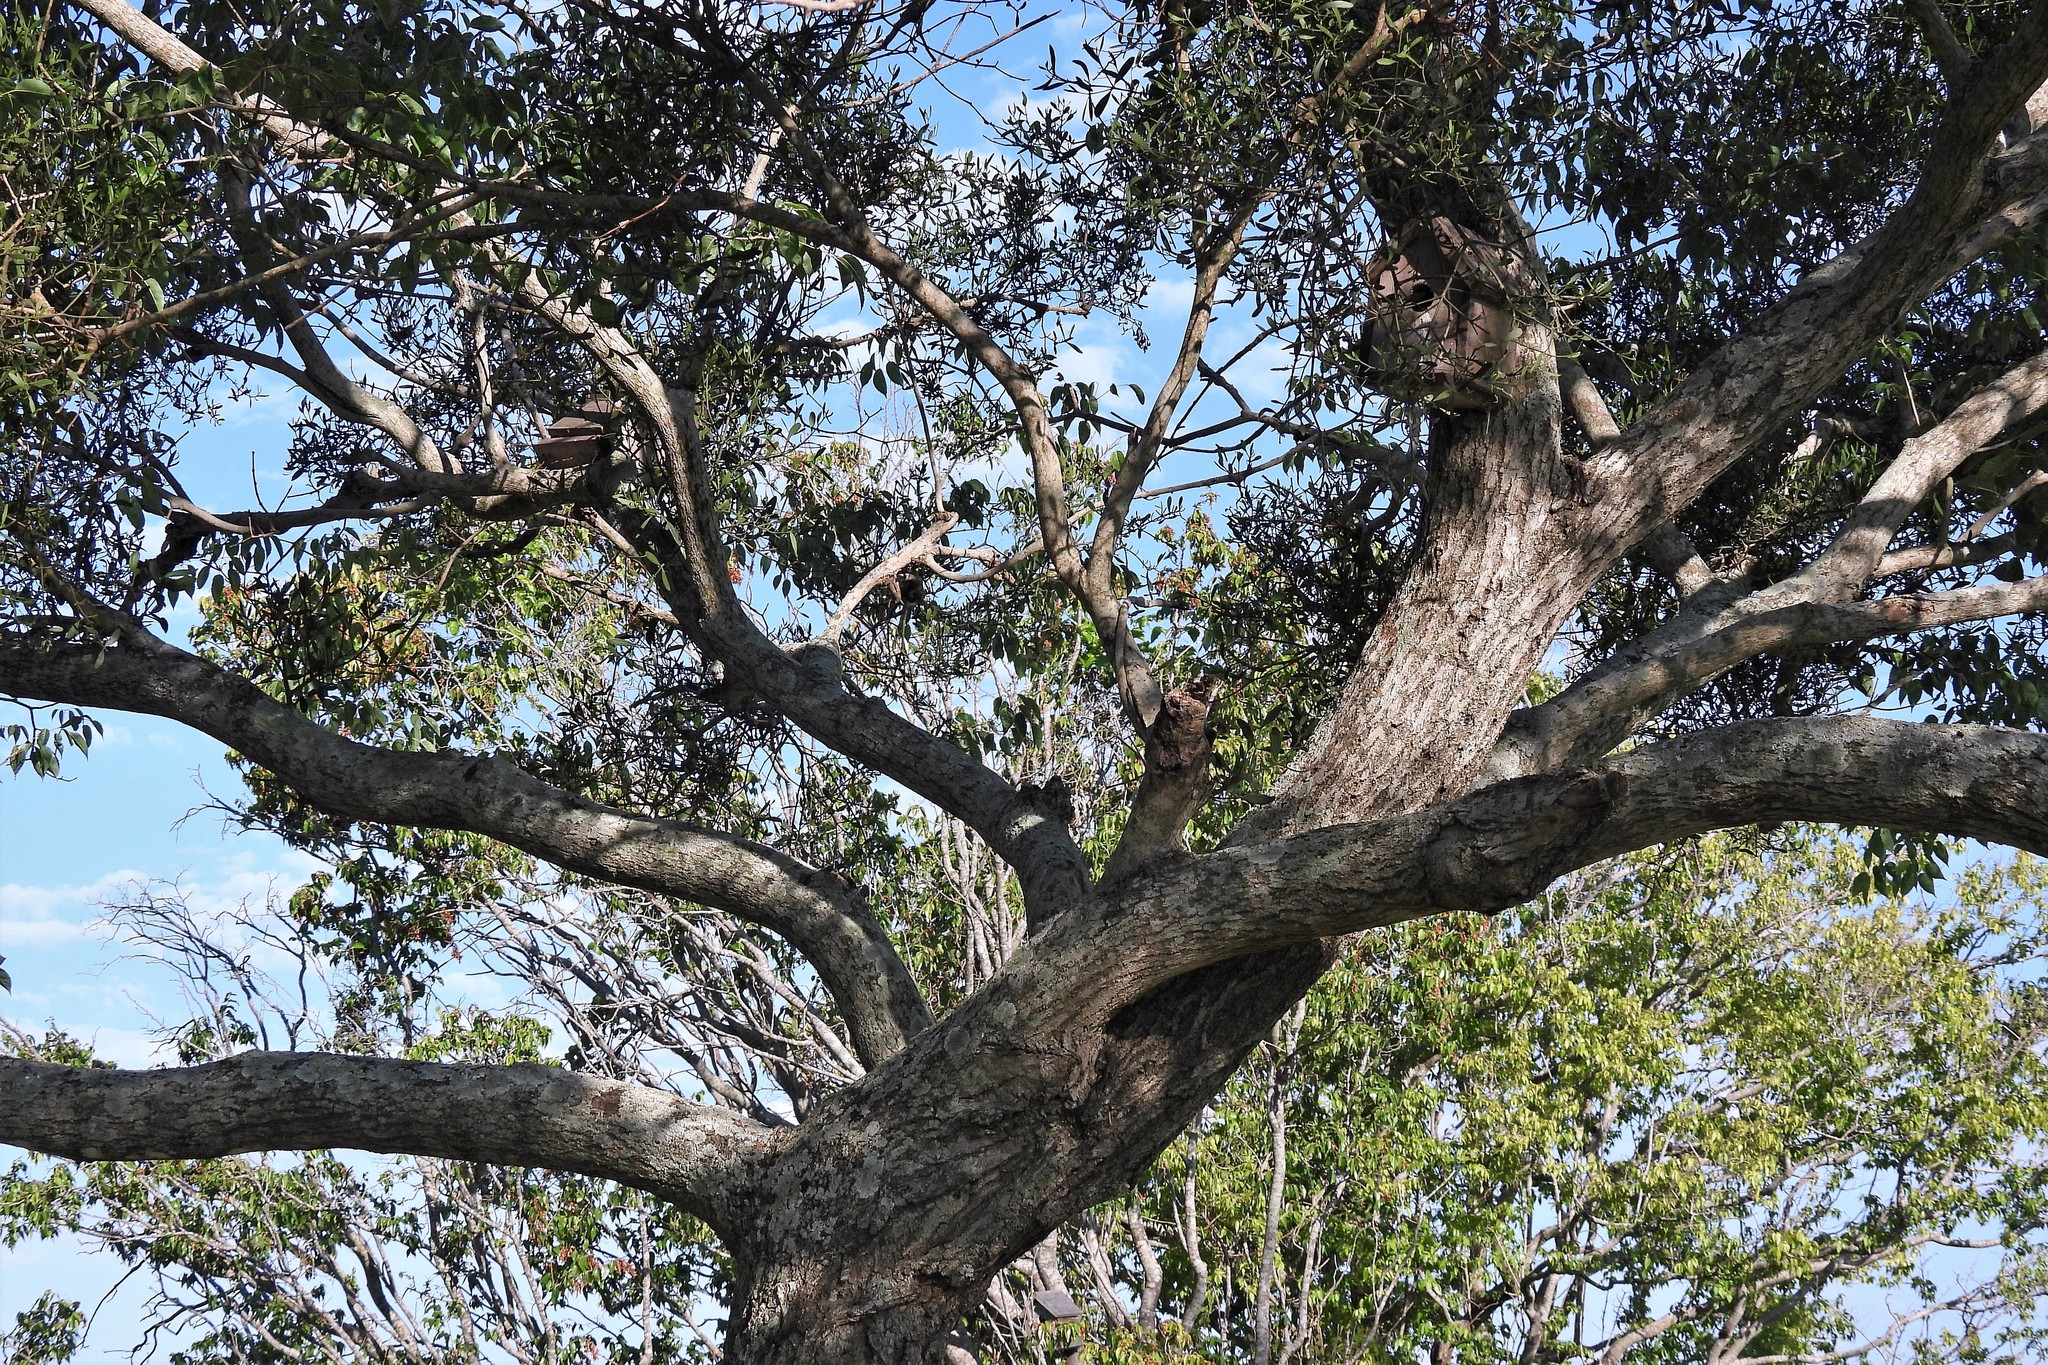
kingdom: Plantae
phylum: Tracheophyta
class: Magnoliopsida
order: Lamiales
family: Bignoniaceae
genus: Handroanthus
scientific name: Handroanthus heptaphyllus
